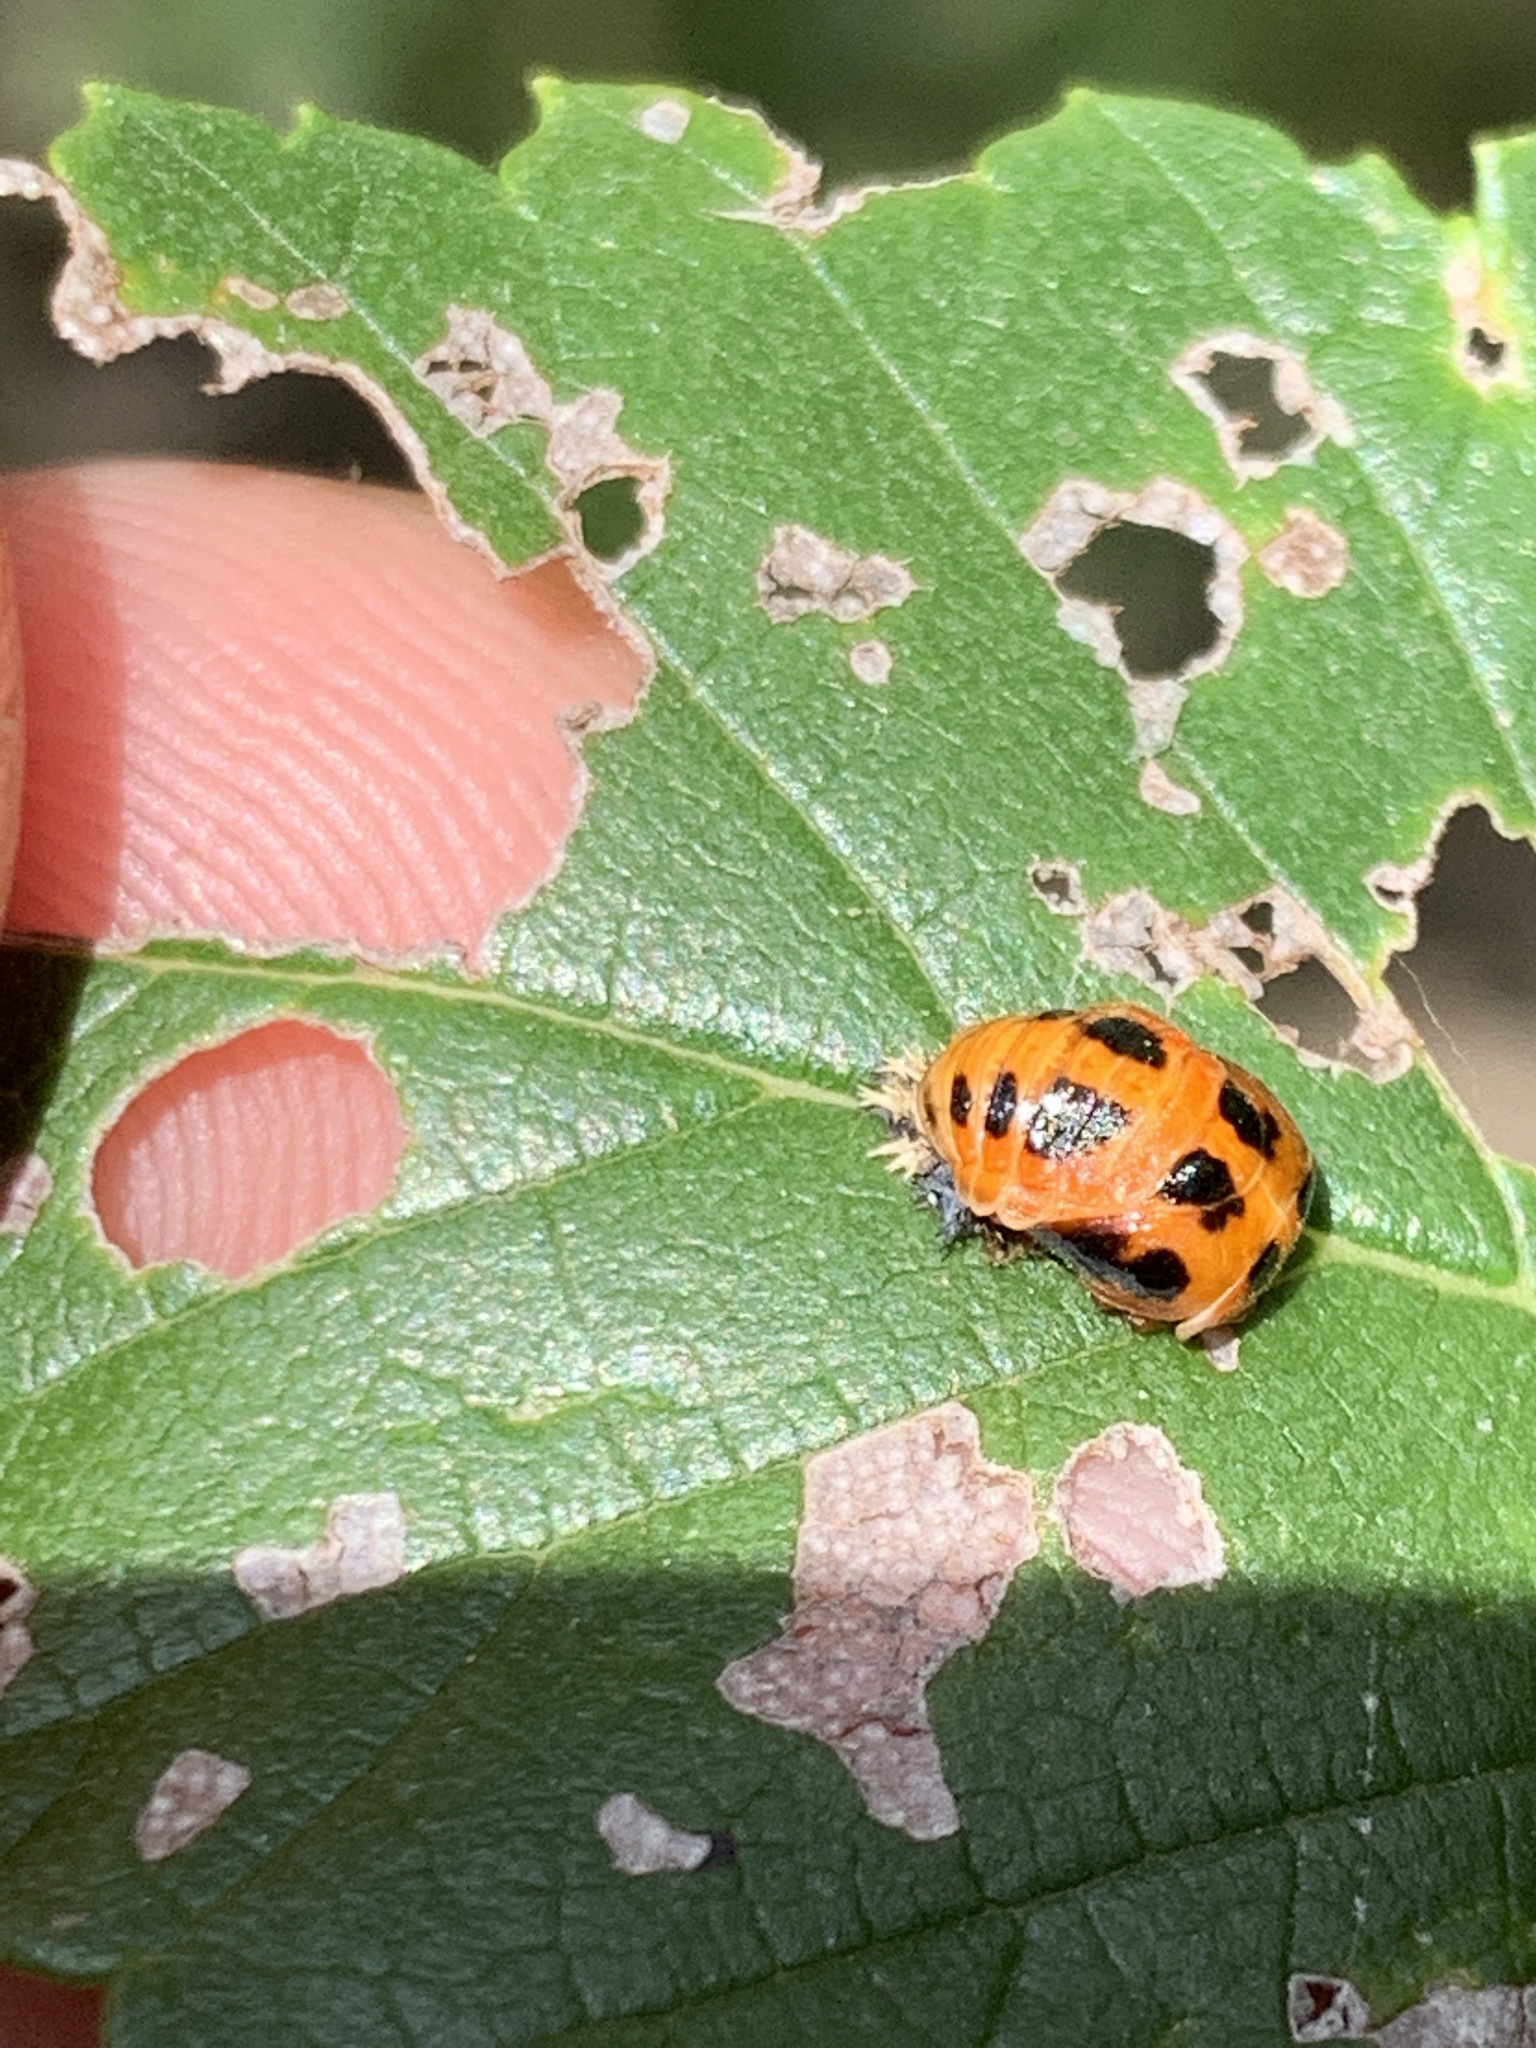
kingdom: Animalia
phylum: Arthropoda
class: Insecta
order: Coleoptera
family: Coccinellidae
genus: Harmonia
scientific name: Harmonia axyridis
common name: Harlequin ladybird
